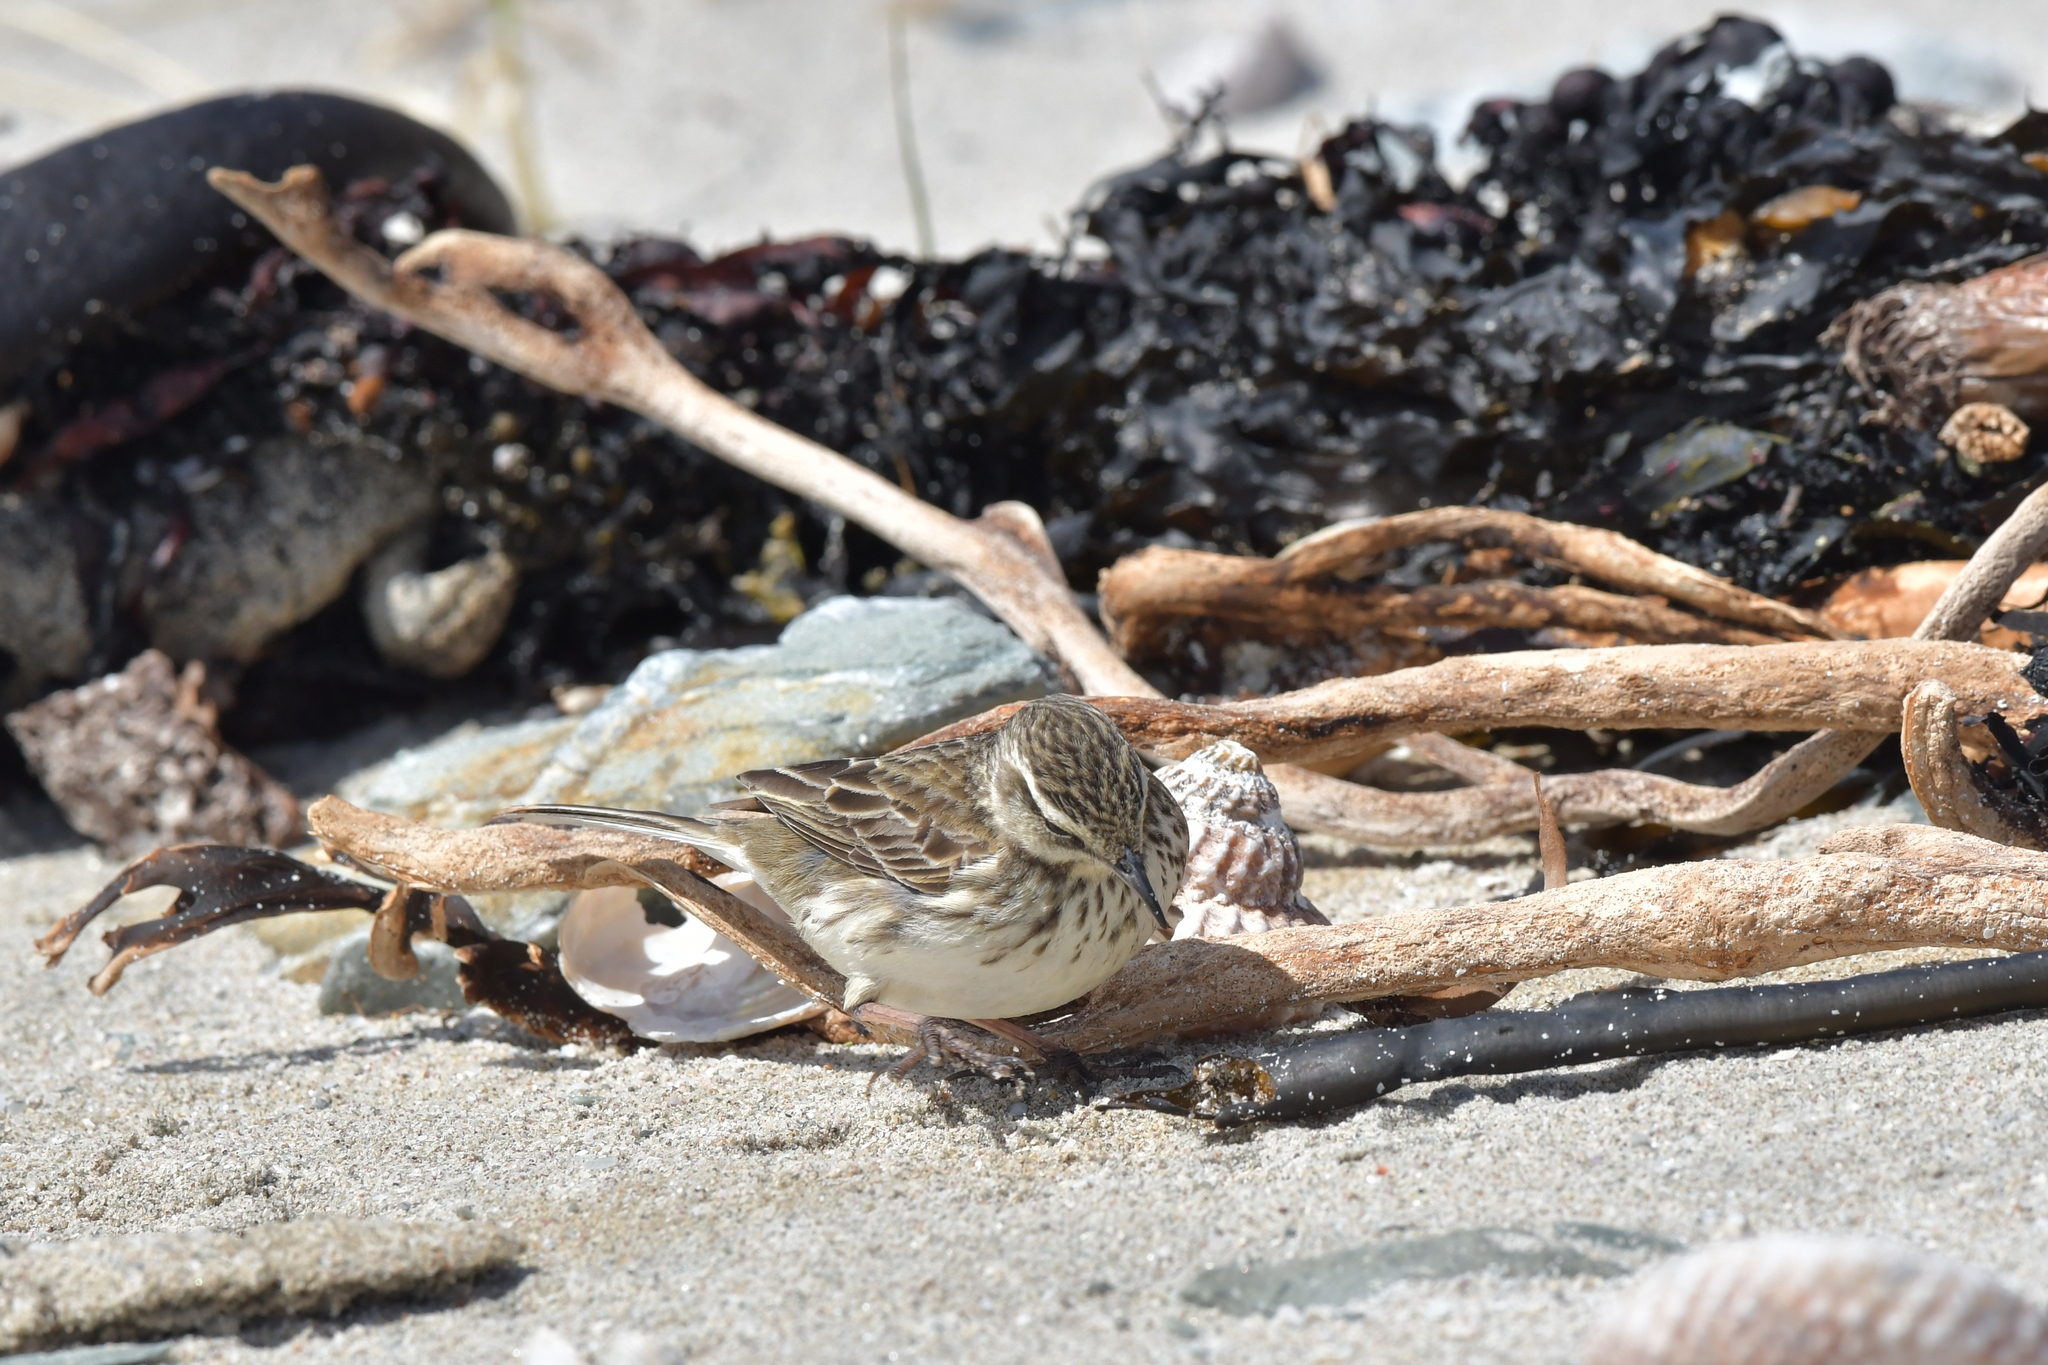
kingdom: Animalia
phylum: Chordata
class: Aves
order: Passeriformes
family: Motacillidae
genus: Anthus
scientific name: Anthus novaeseelandiae
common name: New zealand pipit
